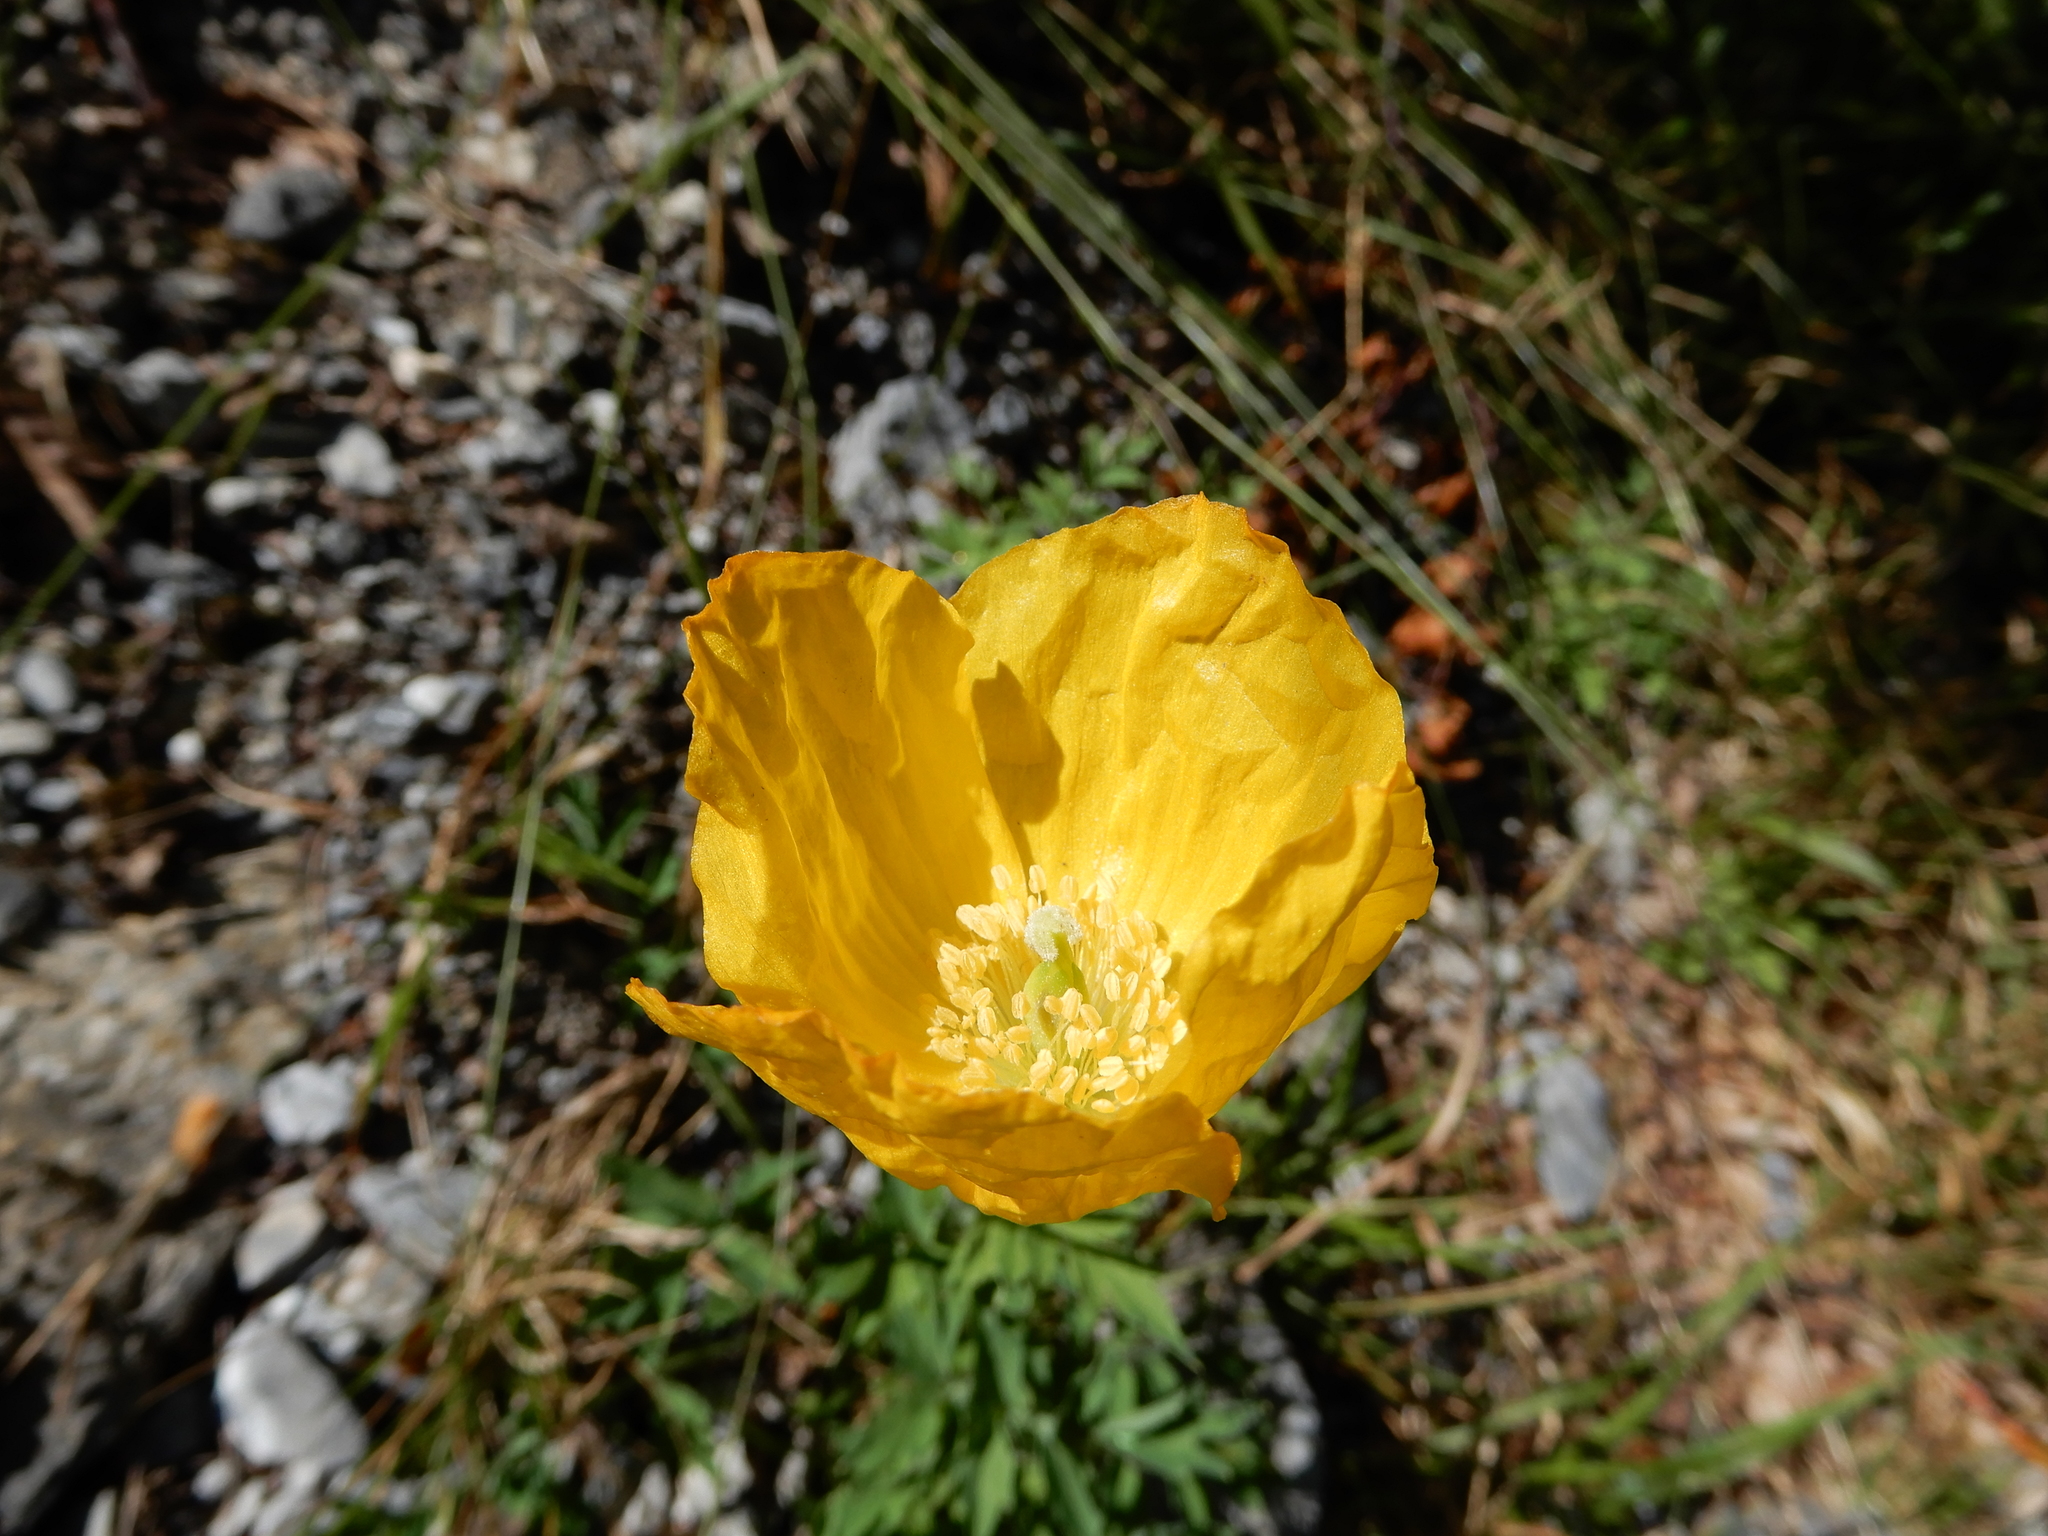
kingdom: Plantae
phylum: Tracheophyta
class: Magnoliopsida
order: Ranunculales
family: Papaveraceae
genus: Papaver
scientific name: Papaver cambricum
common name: Poppy
